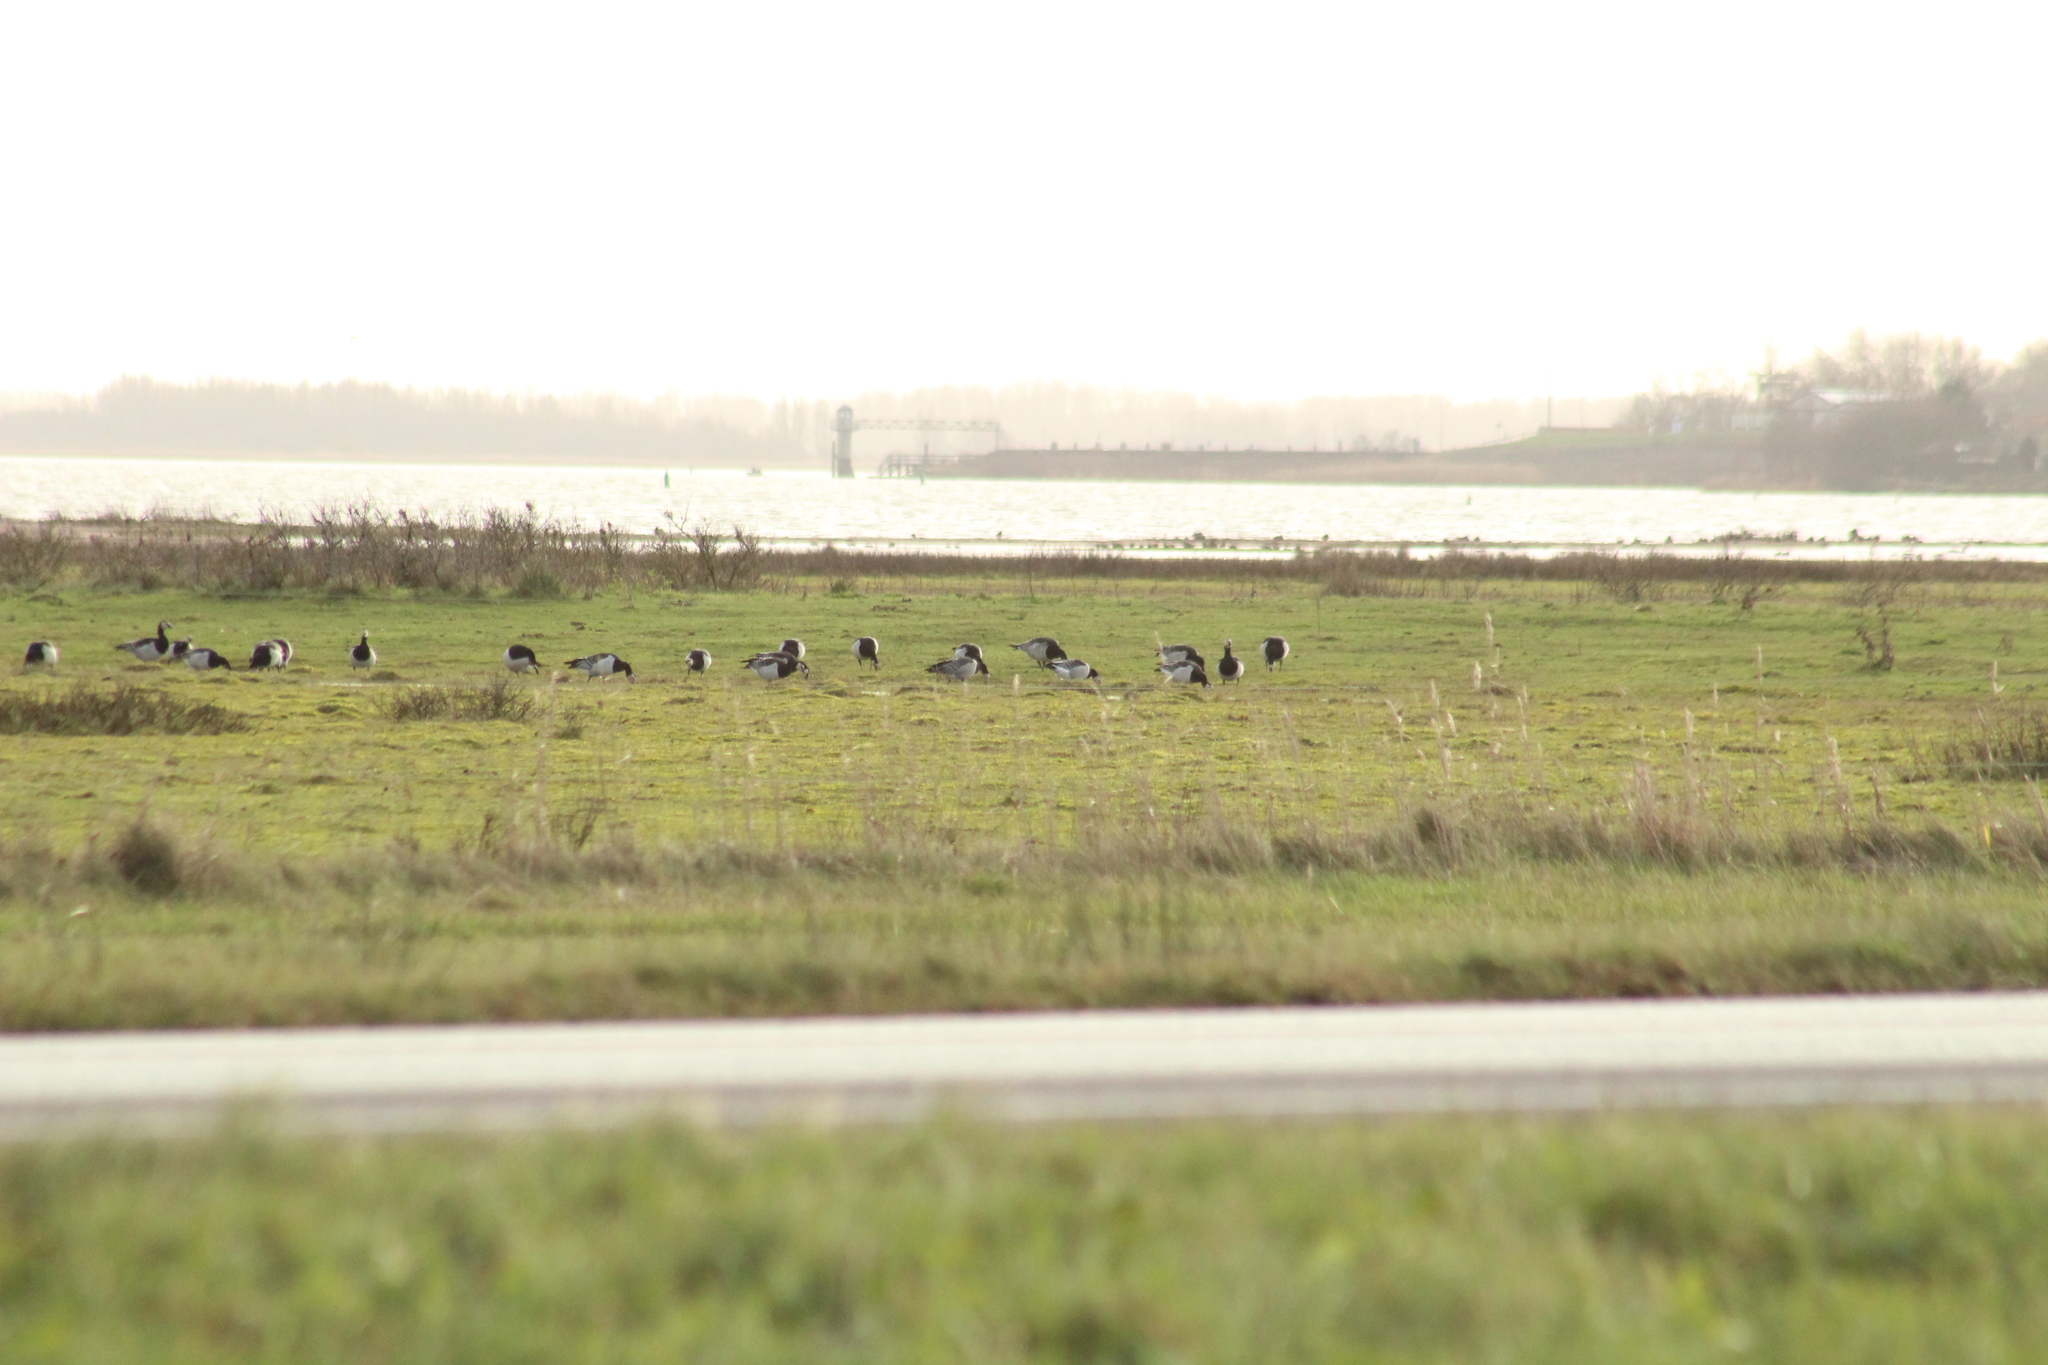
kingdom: Animalia
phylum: Chordata
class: Aves
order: Anseriformes
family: Anatidae
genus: Branta
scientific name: Branta leucopsis
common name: Barnacle goose
